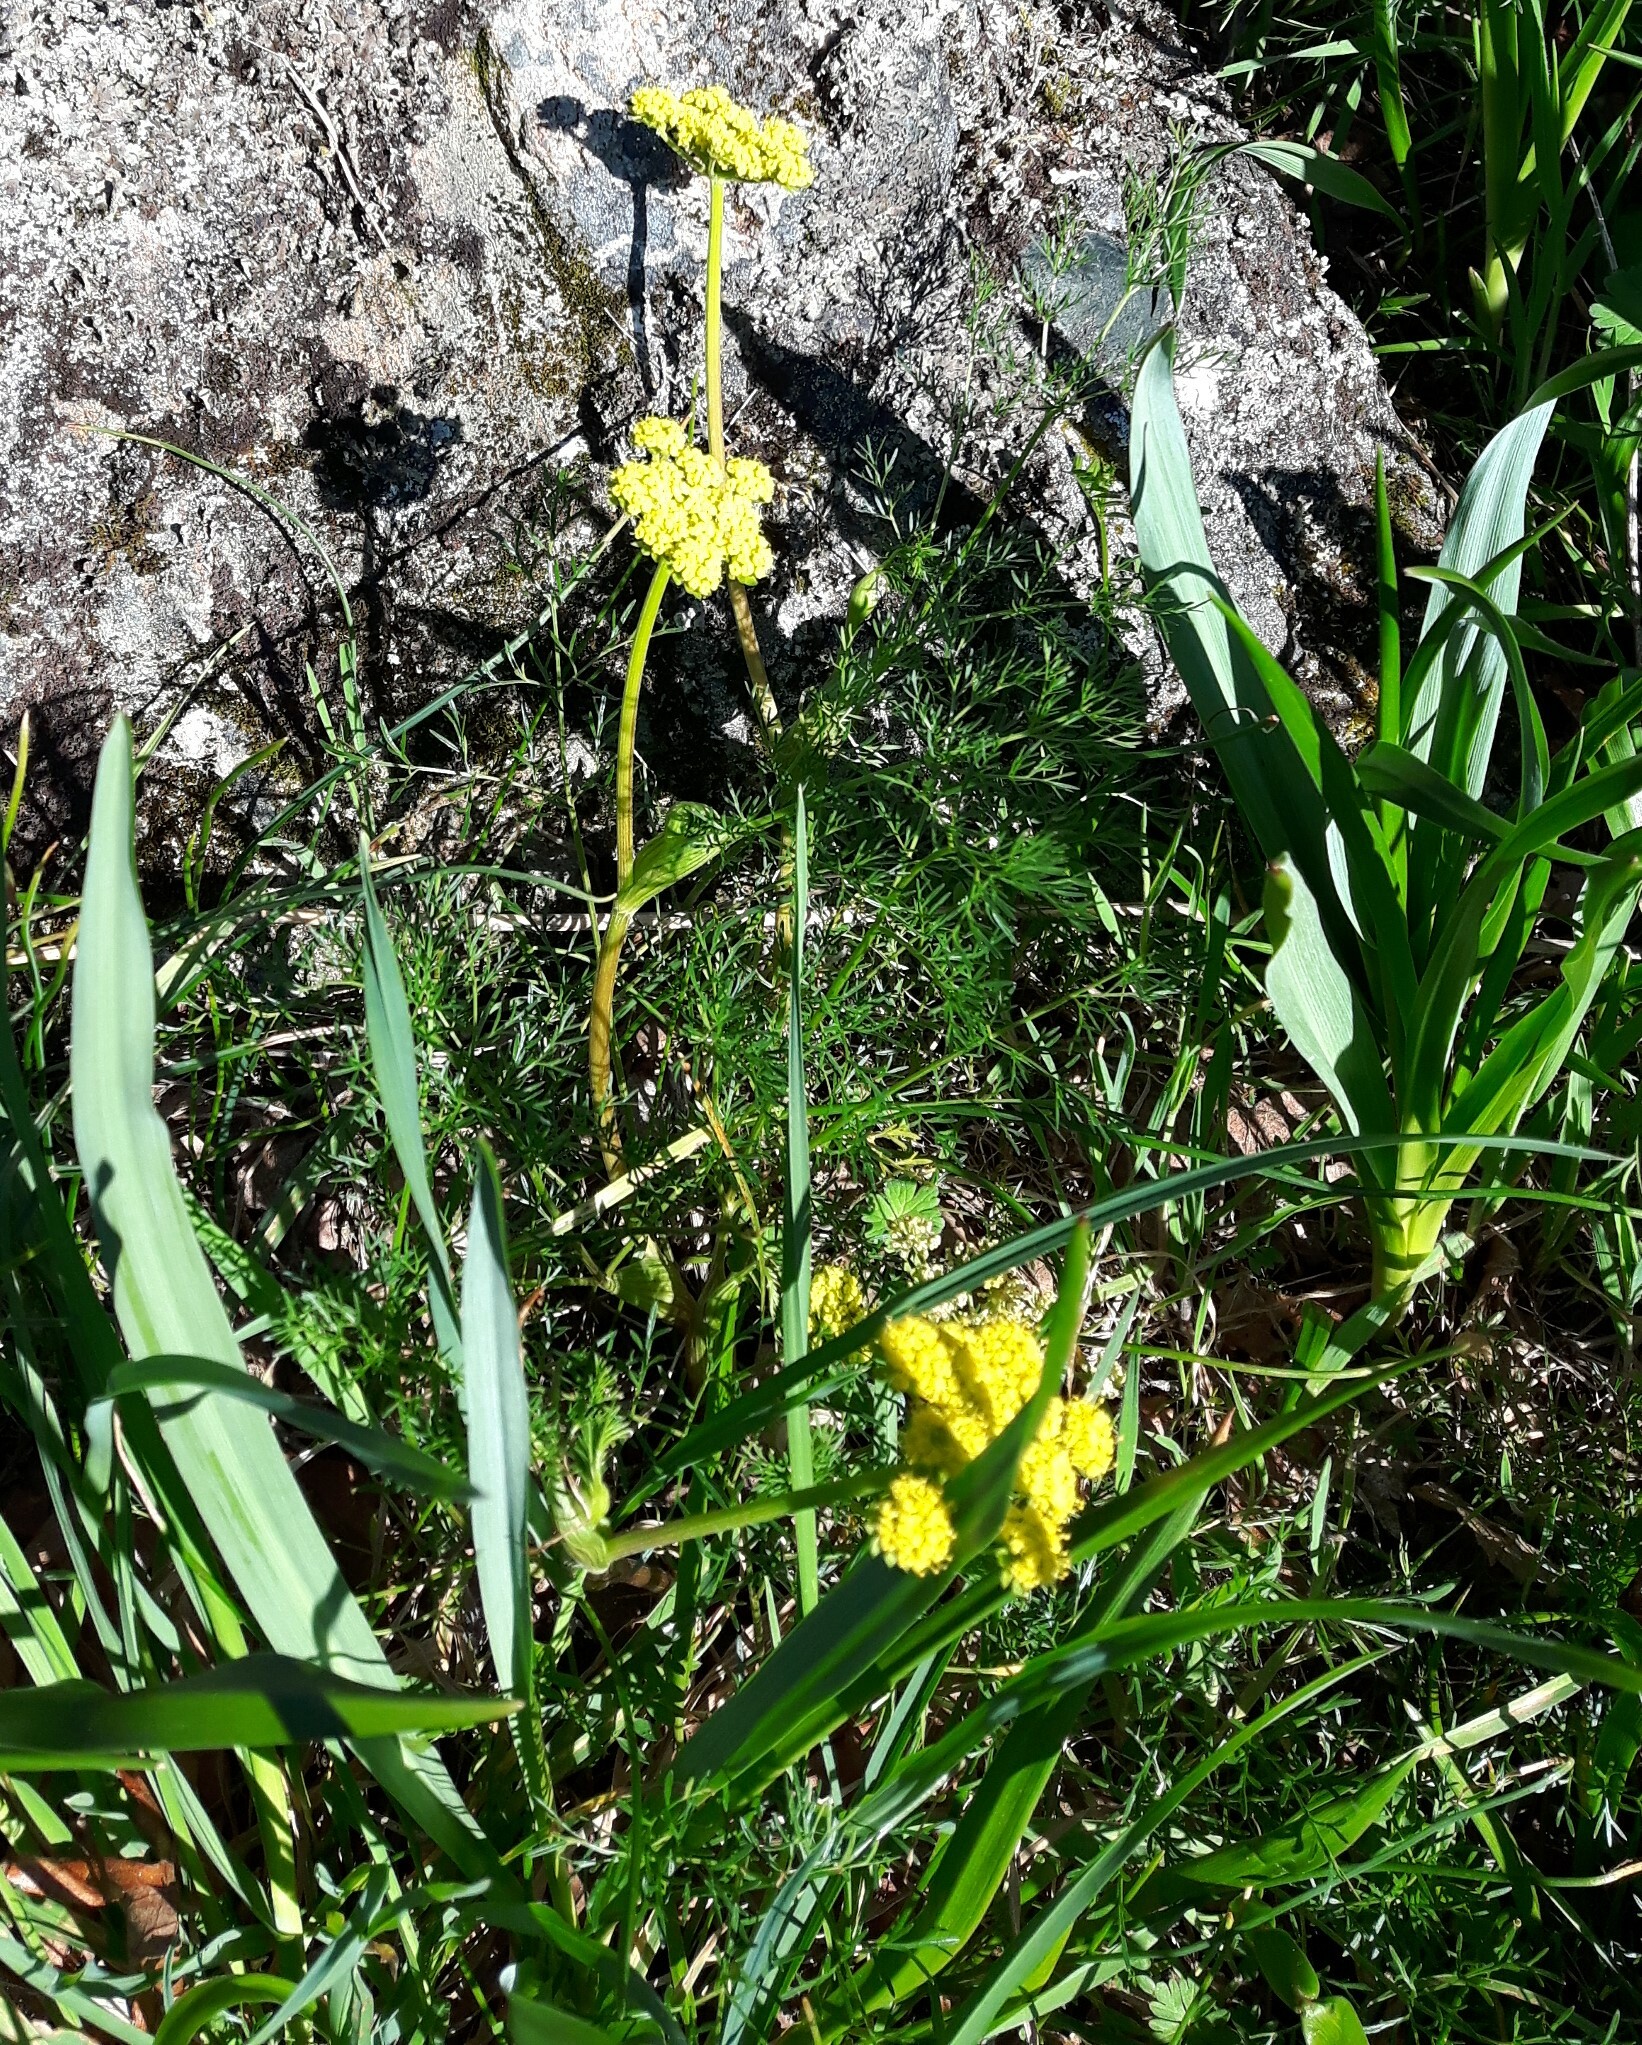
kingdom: Plantae
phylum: Tracheophyta
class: Magnoliopsida
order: Apiales
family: Apiaceae
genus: Lomatium
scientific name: Lomatium utriculatum
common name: Fine-leaf desert-parsley
